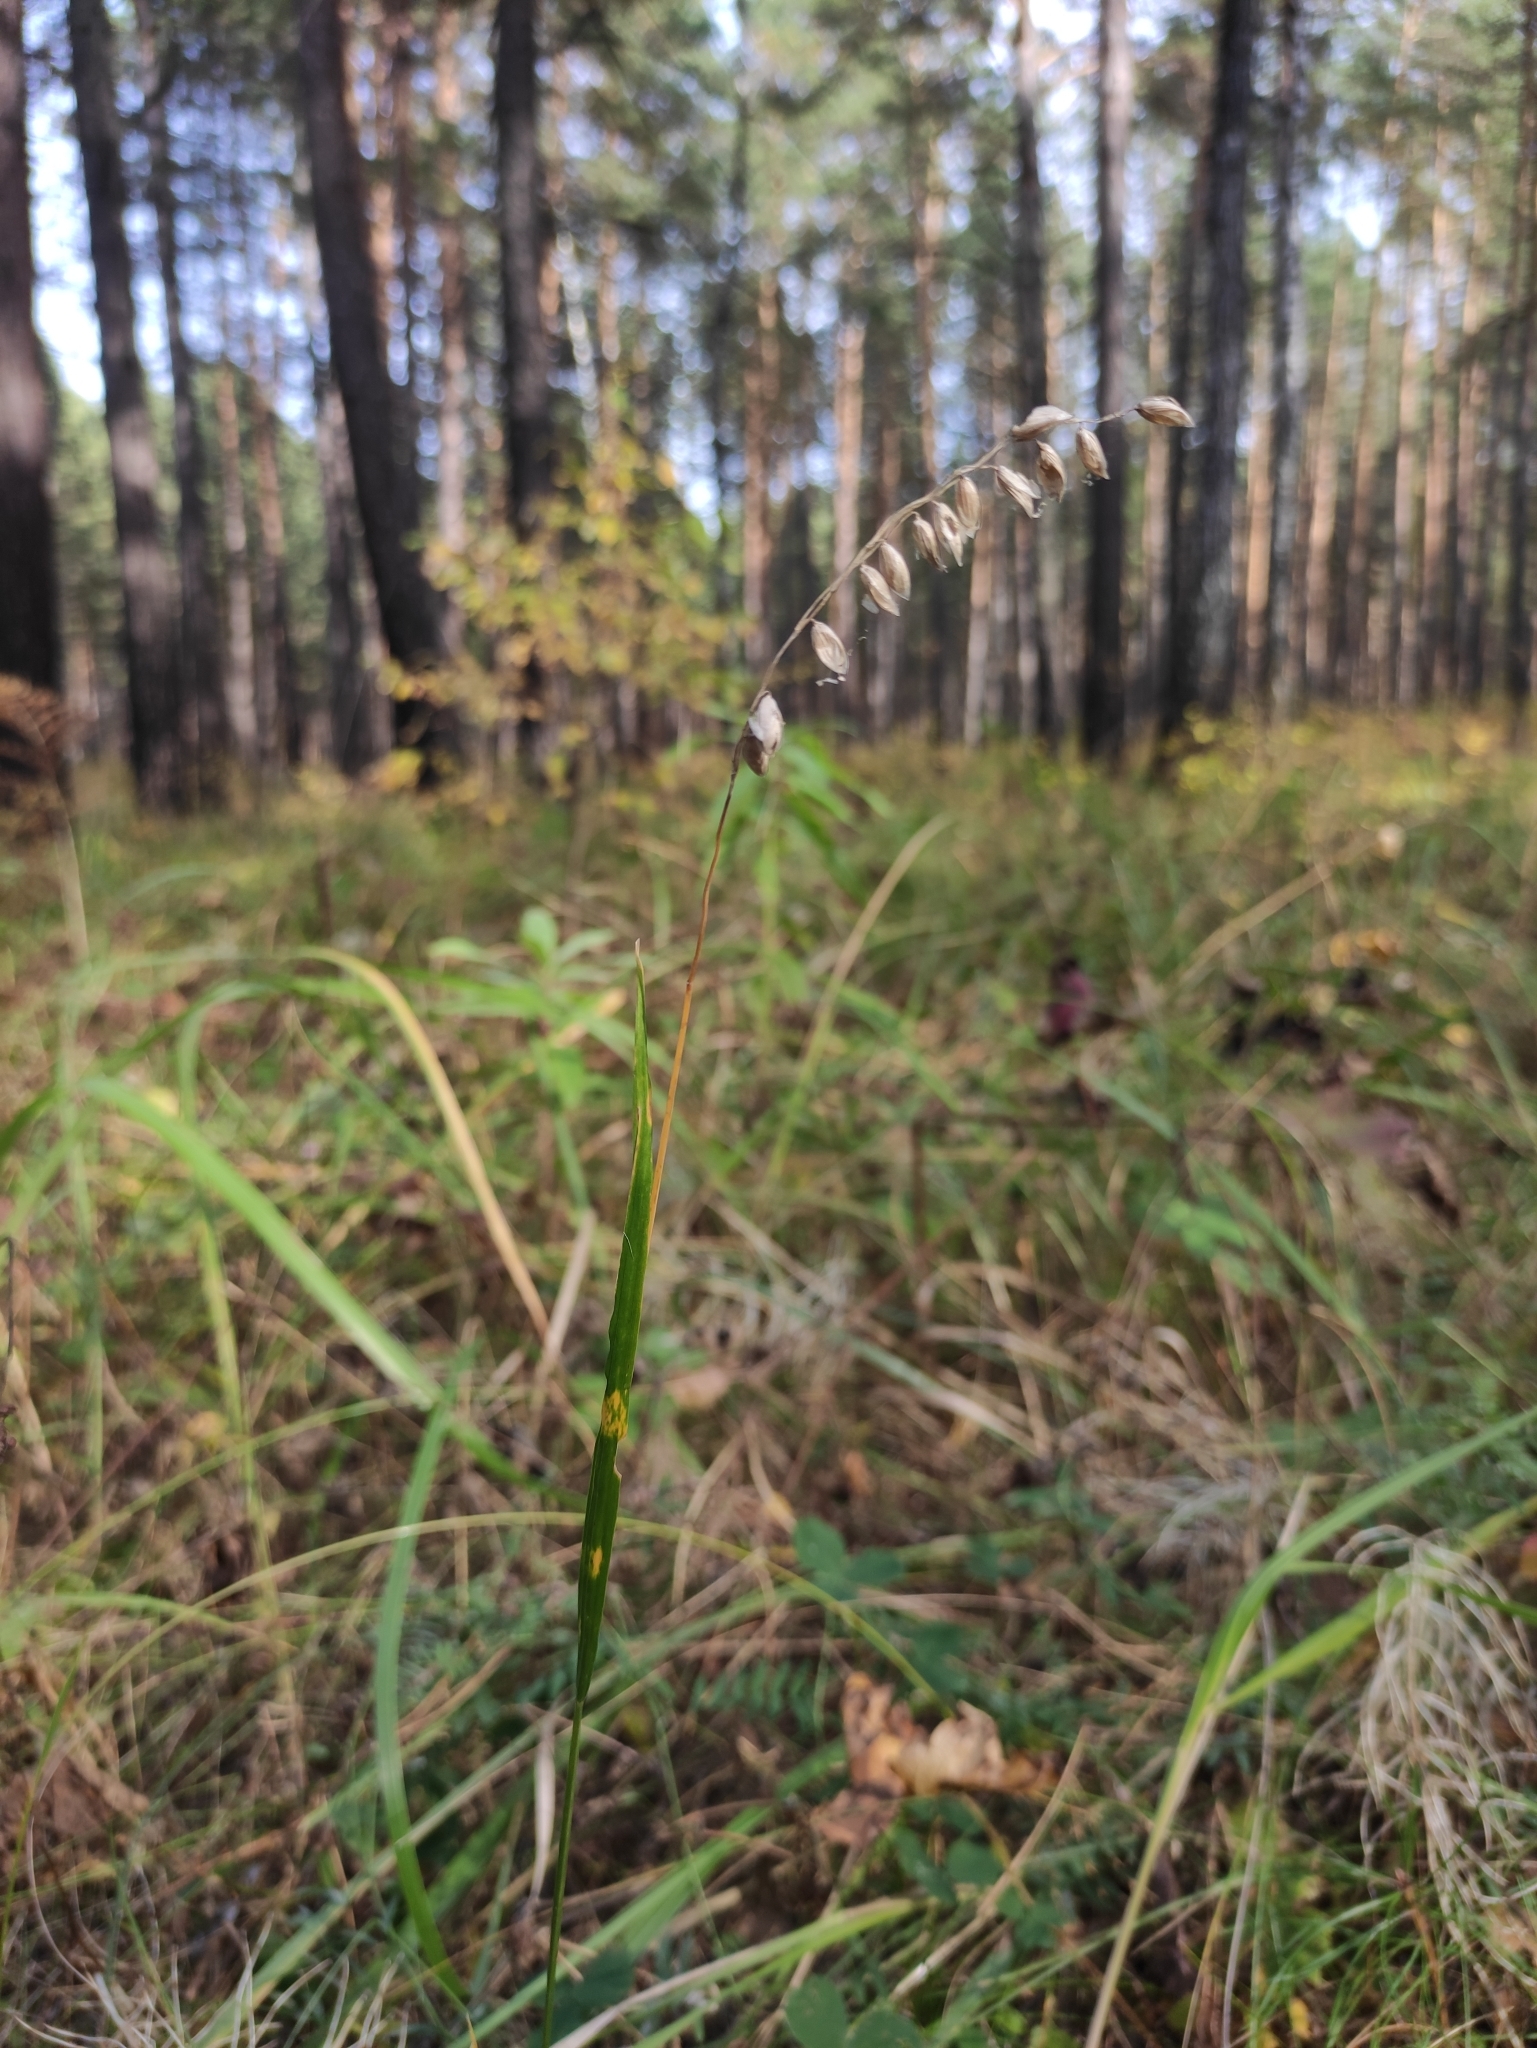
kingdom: Plantae
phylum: Tracheophyta
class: Liliopsida
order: Poales
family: Poaceae
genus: Melica
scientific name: Melica nutans
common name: Mountain melick
